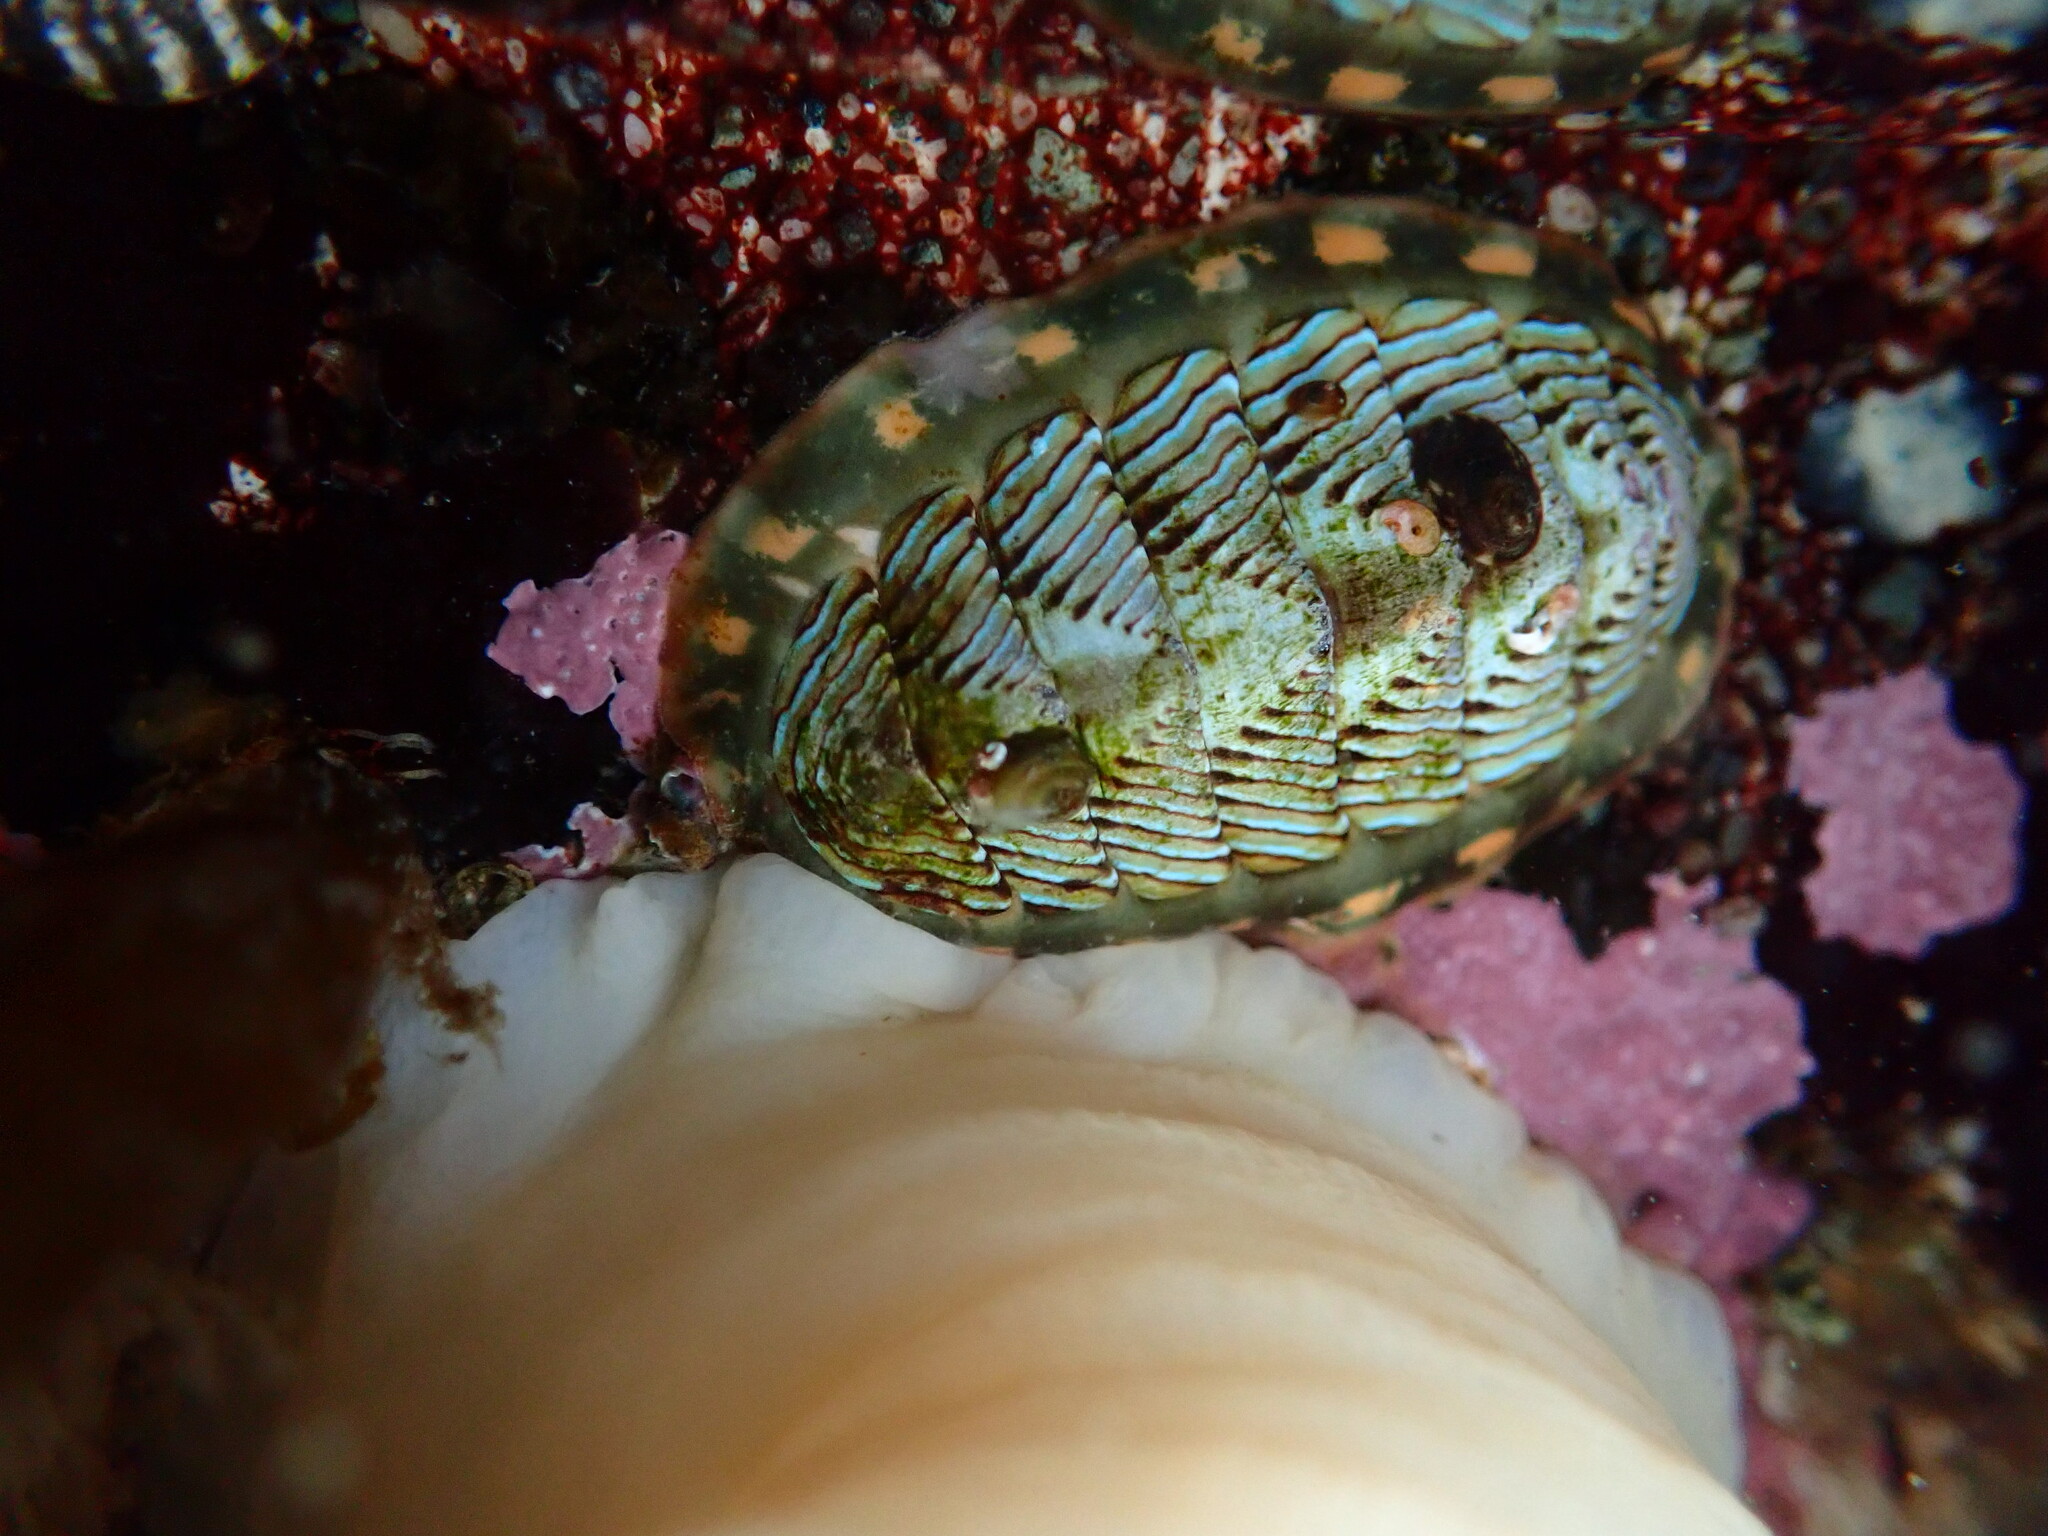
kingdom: Animalia
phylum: Mollusca
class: Polyplacophora
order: Chitonida
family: Tonicellidae
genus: Tonicella
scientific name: Tonicella lineata
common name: Lined chiton
